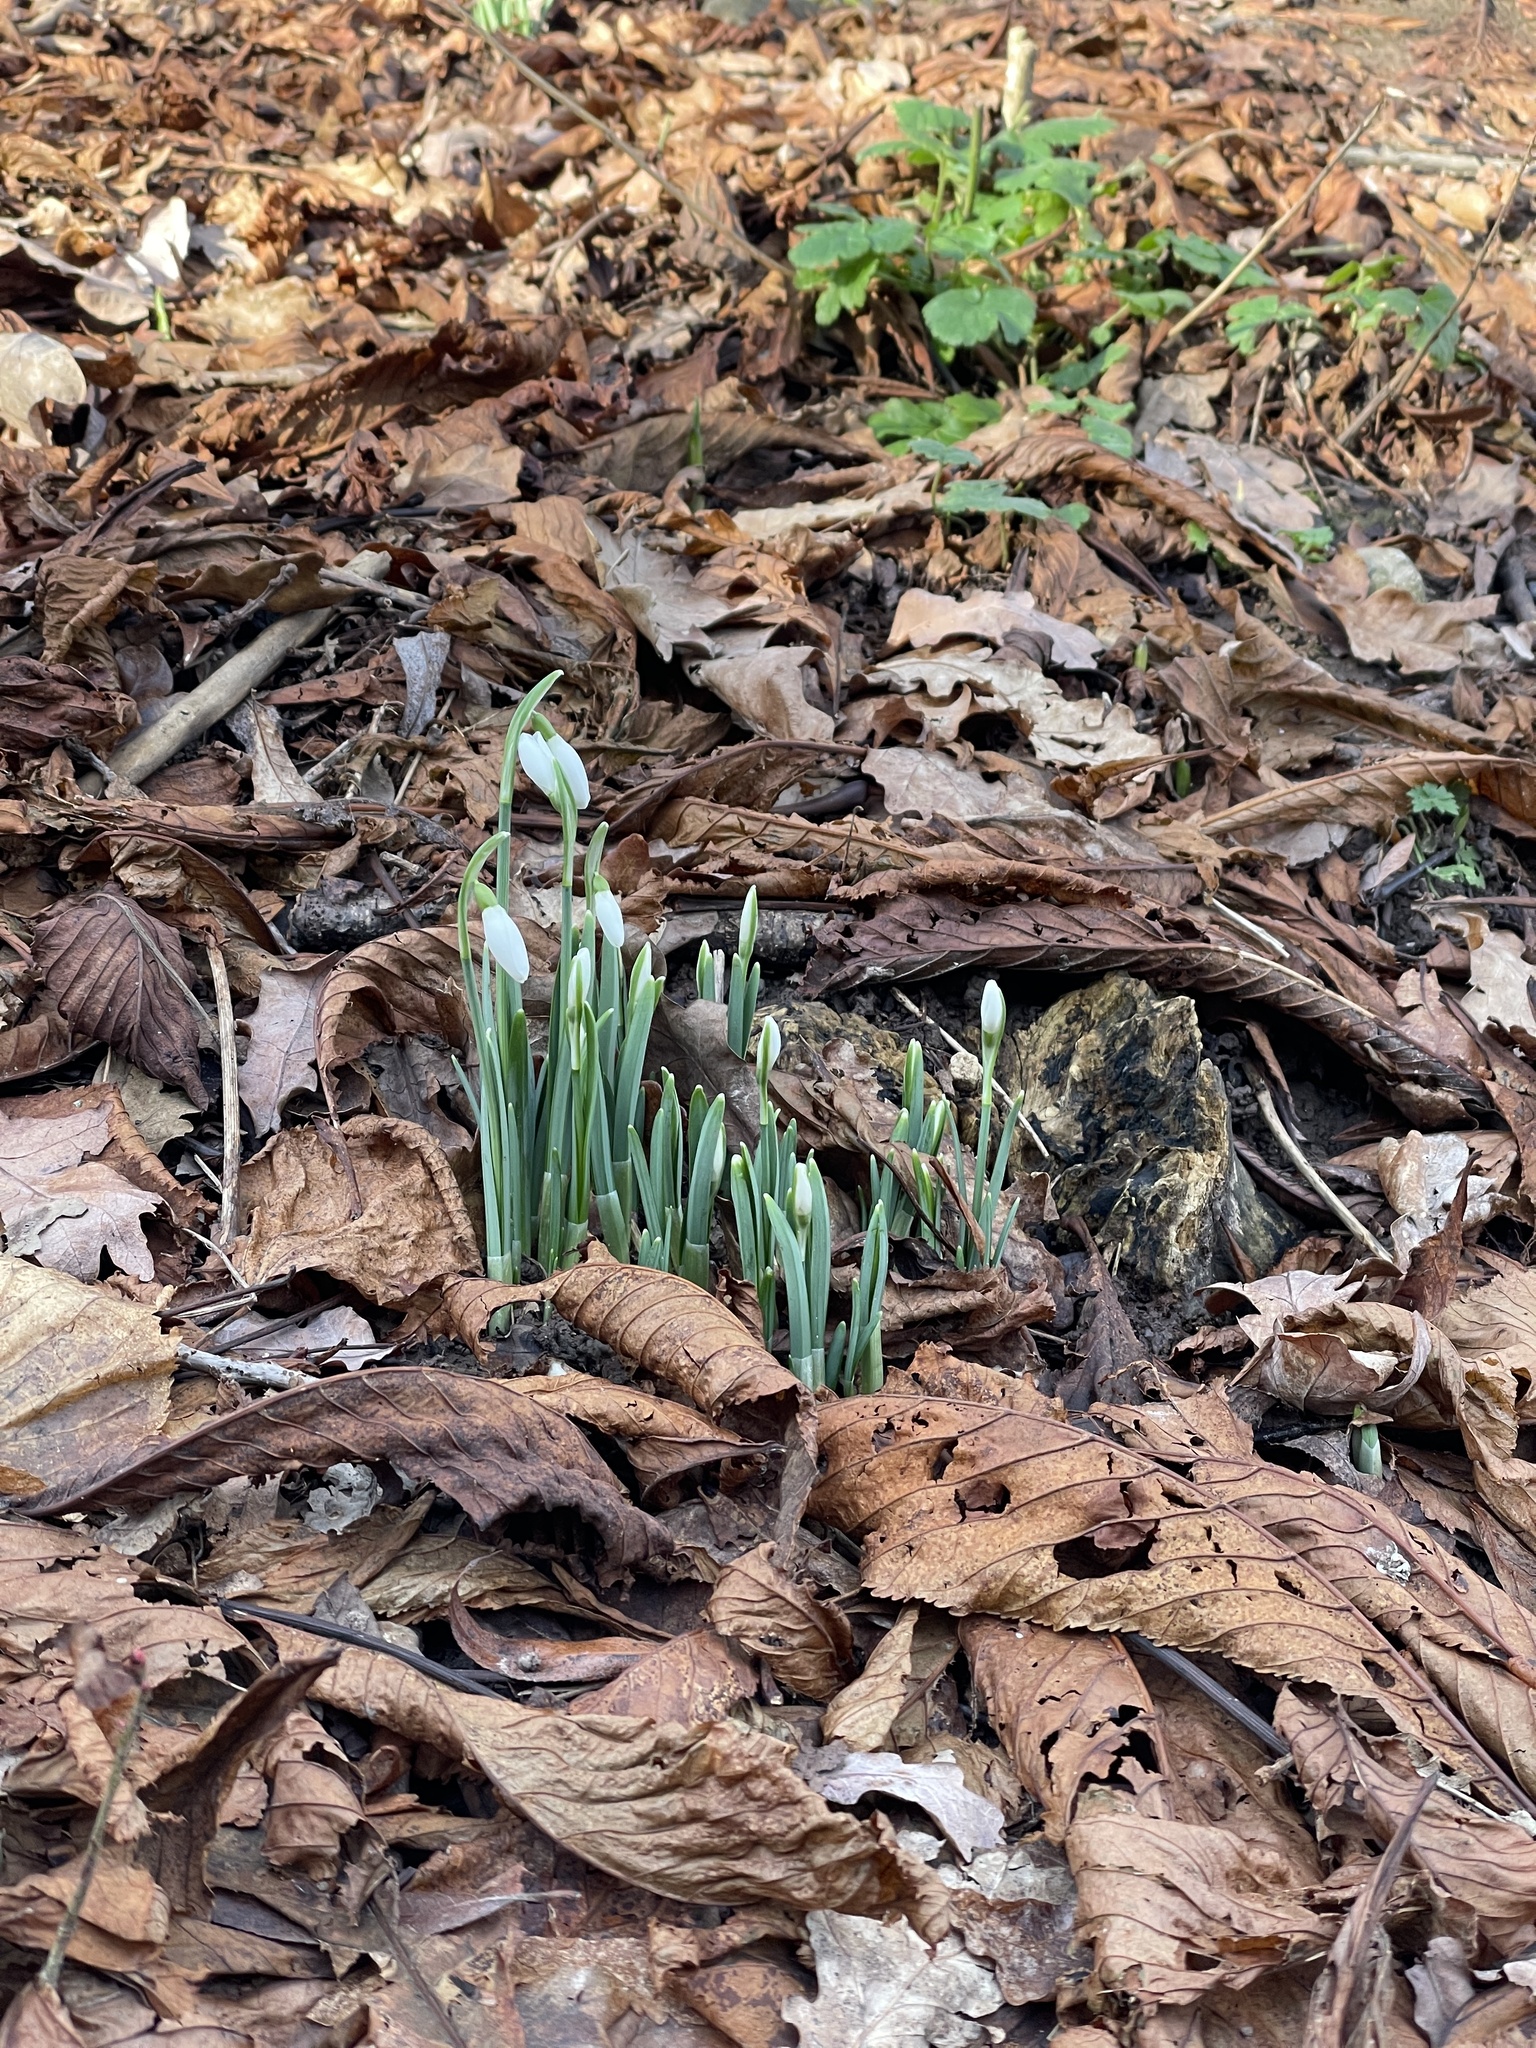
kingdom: Plantae
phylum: Tracheophyta
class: Liliopsida
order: Asparagales
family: Amaryllidaceae
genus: Galanthus
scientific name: Galanthus nivalis
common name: Snowdrop
